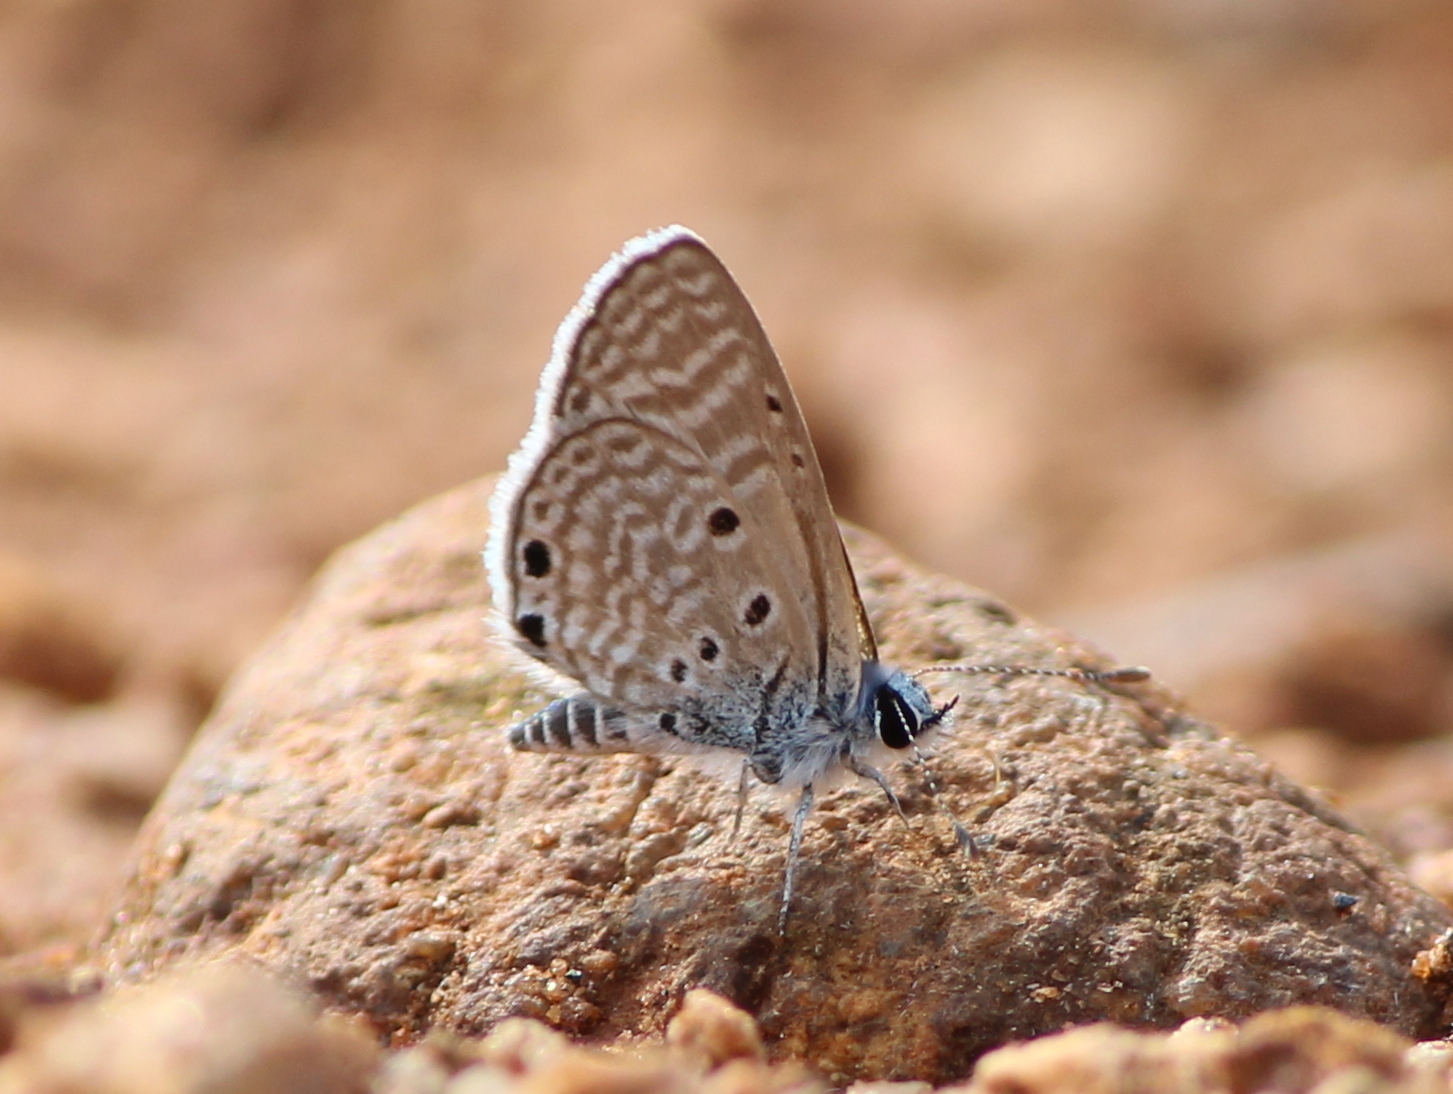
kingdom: Animalia
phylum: Arthropoda
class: Insecta
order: Lepidoptera
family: Lycaenidae
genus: Azanus
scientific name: Azanus ubaldus
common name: Desert babul blue
